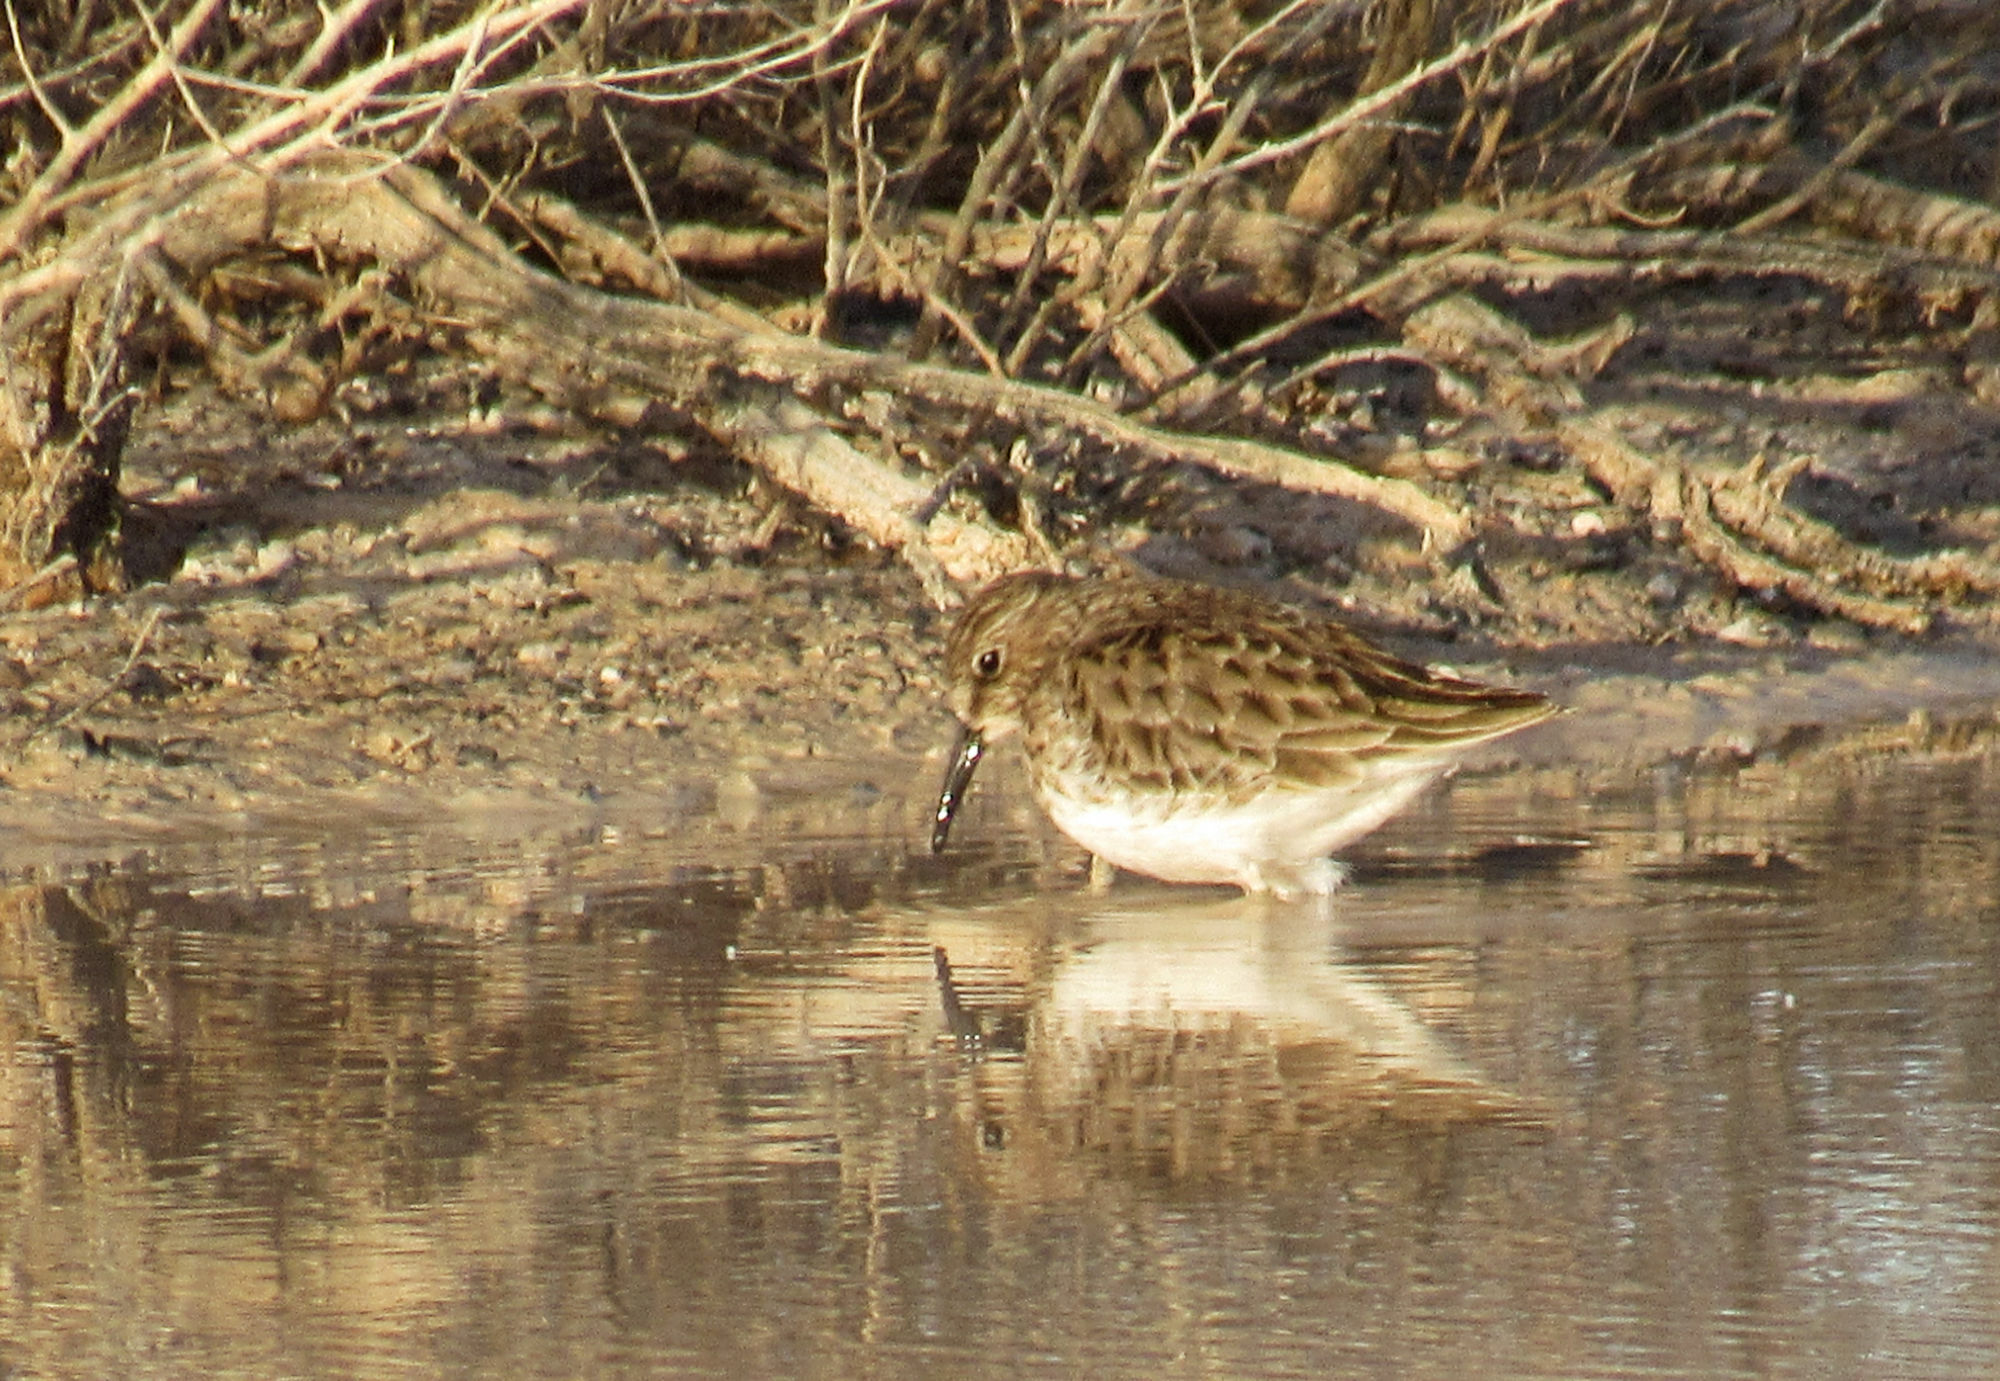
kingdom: Animalia
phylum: Chordata
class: Aves
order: Charadriiformes
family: Scolopacidae
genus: Calidris
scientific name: Calidris minutilla
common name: Least sandpiper
